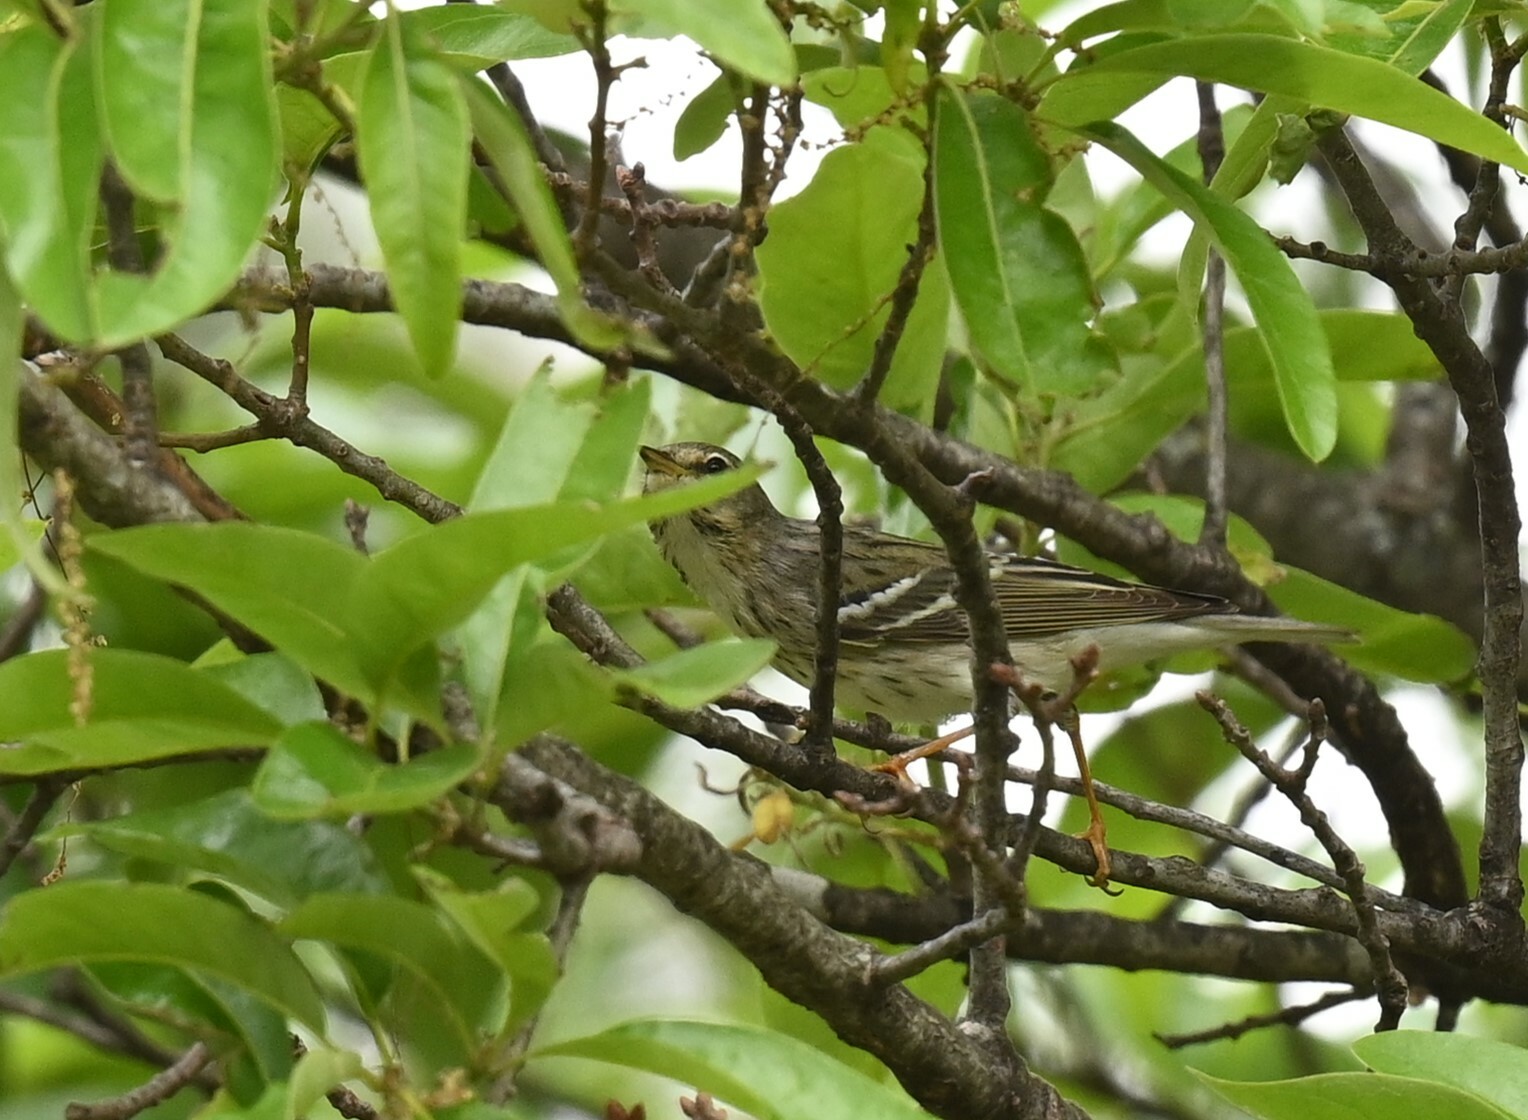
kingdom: Animalia
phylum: Chordata
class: Aves
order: Passeriformes
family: Parulidae
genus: Setophaga
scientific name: Setophaga striata
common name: Blackpoll warbler
